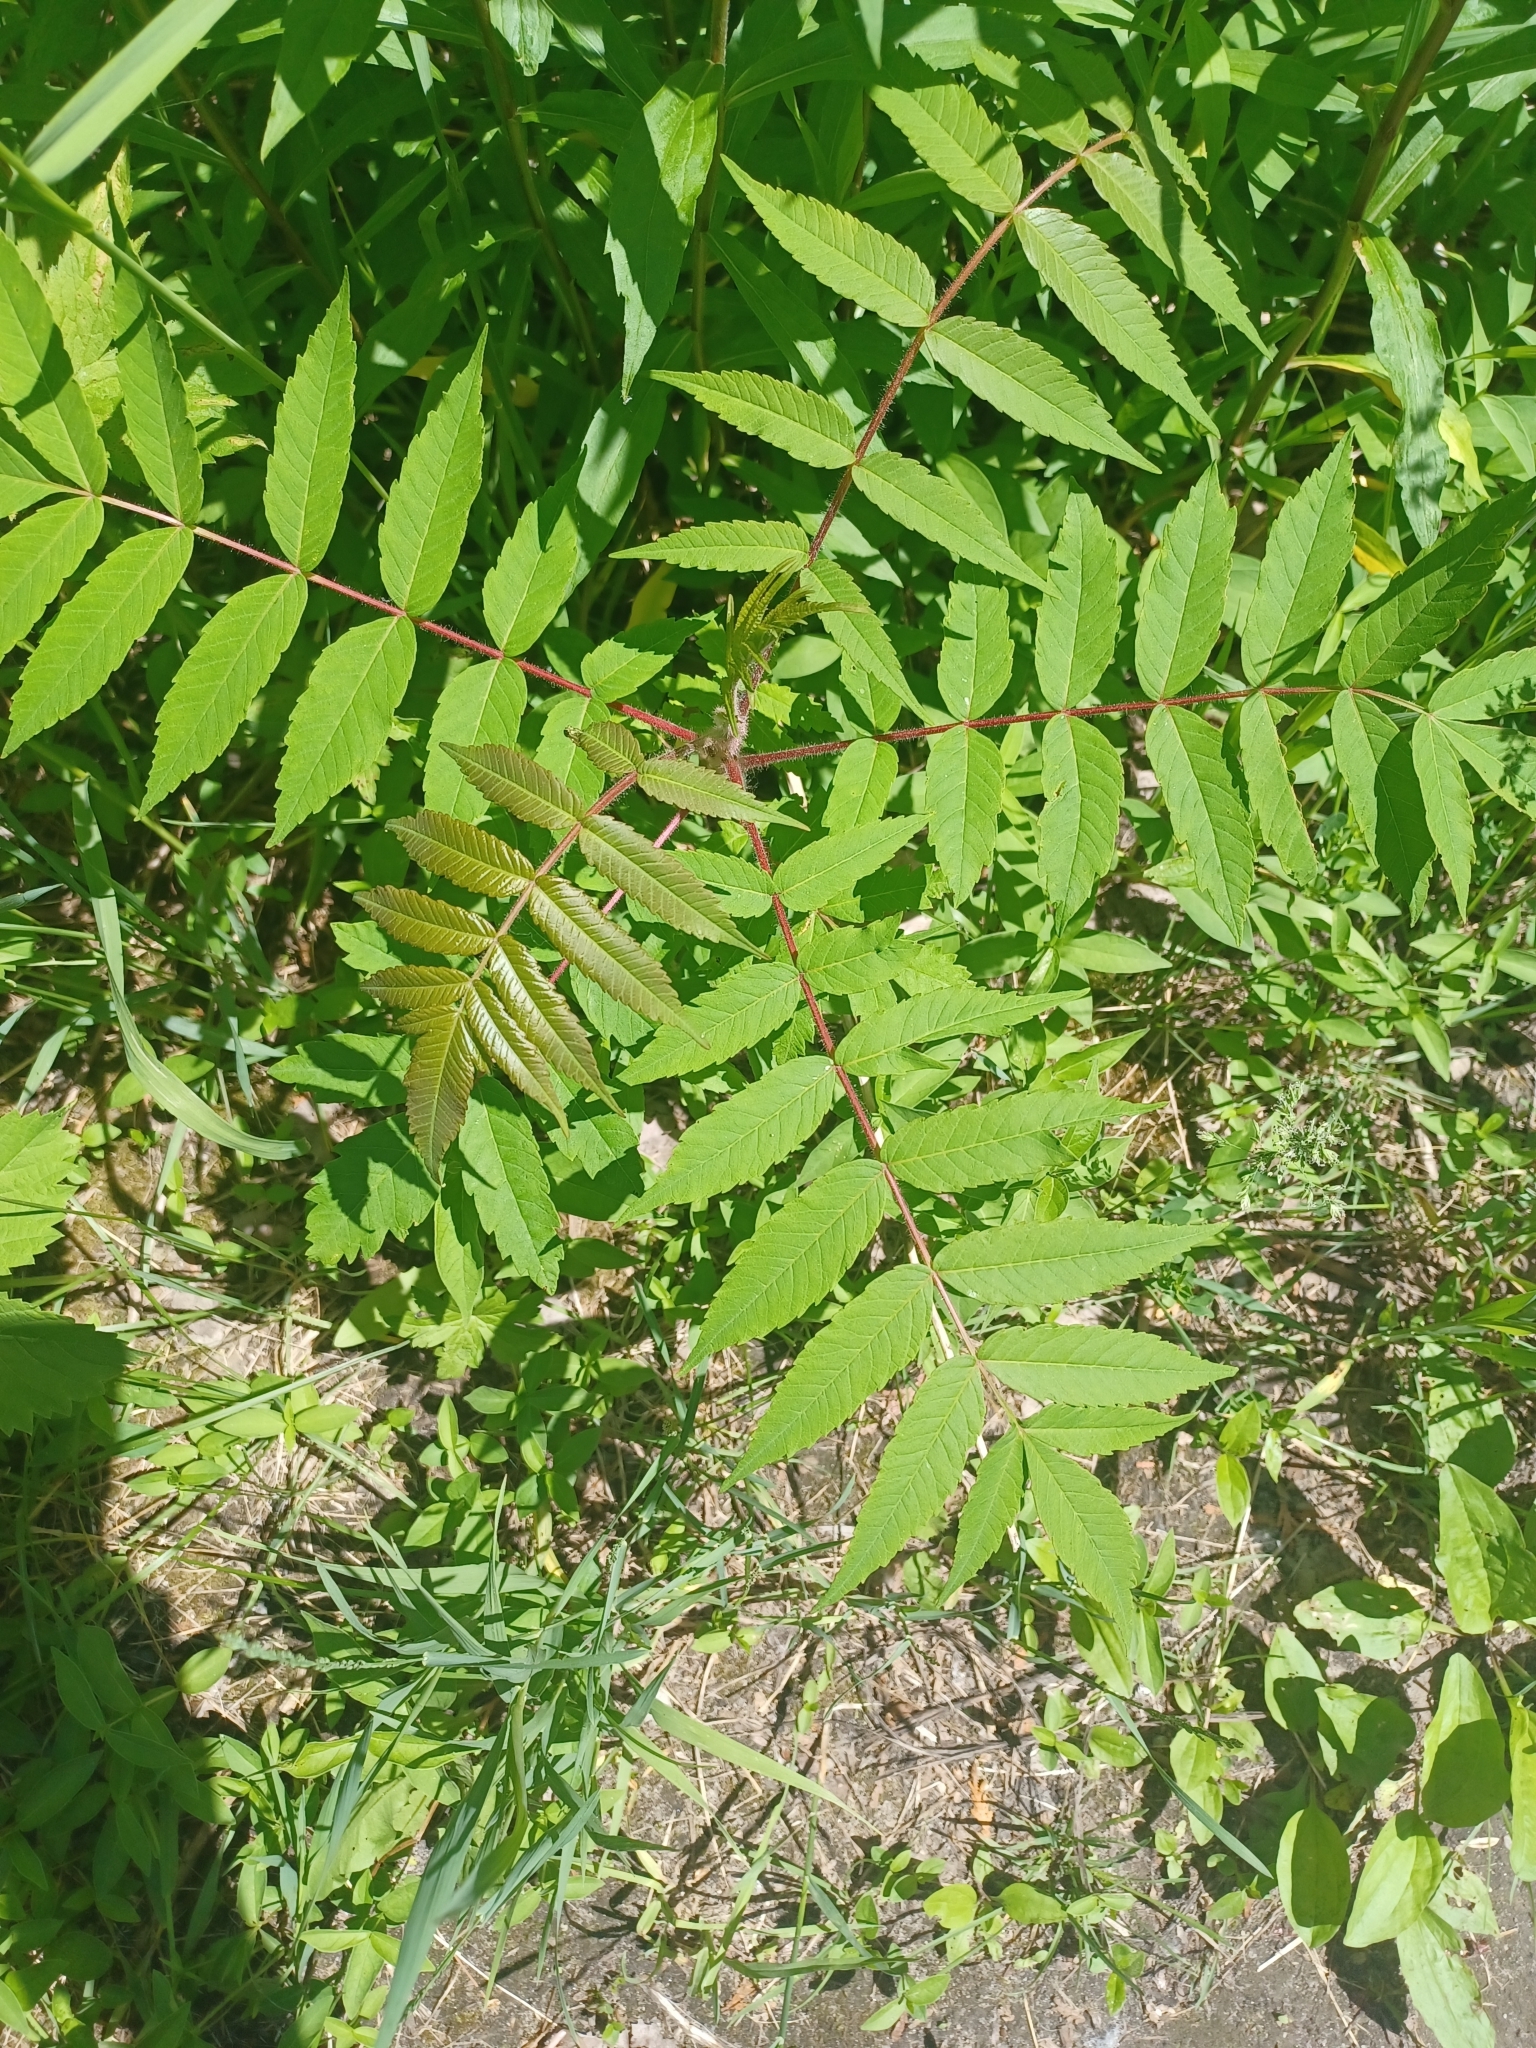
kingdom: Plantae
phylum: Tracheophyta
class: Magnoliopsida
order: Sapindales
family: Anacardiaceae
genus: Rhus
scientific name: Rhus typhina
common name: Staghorn sumac
